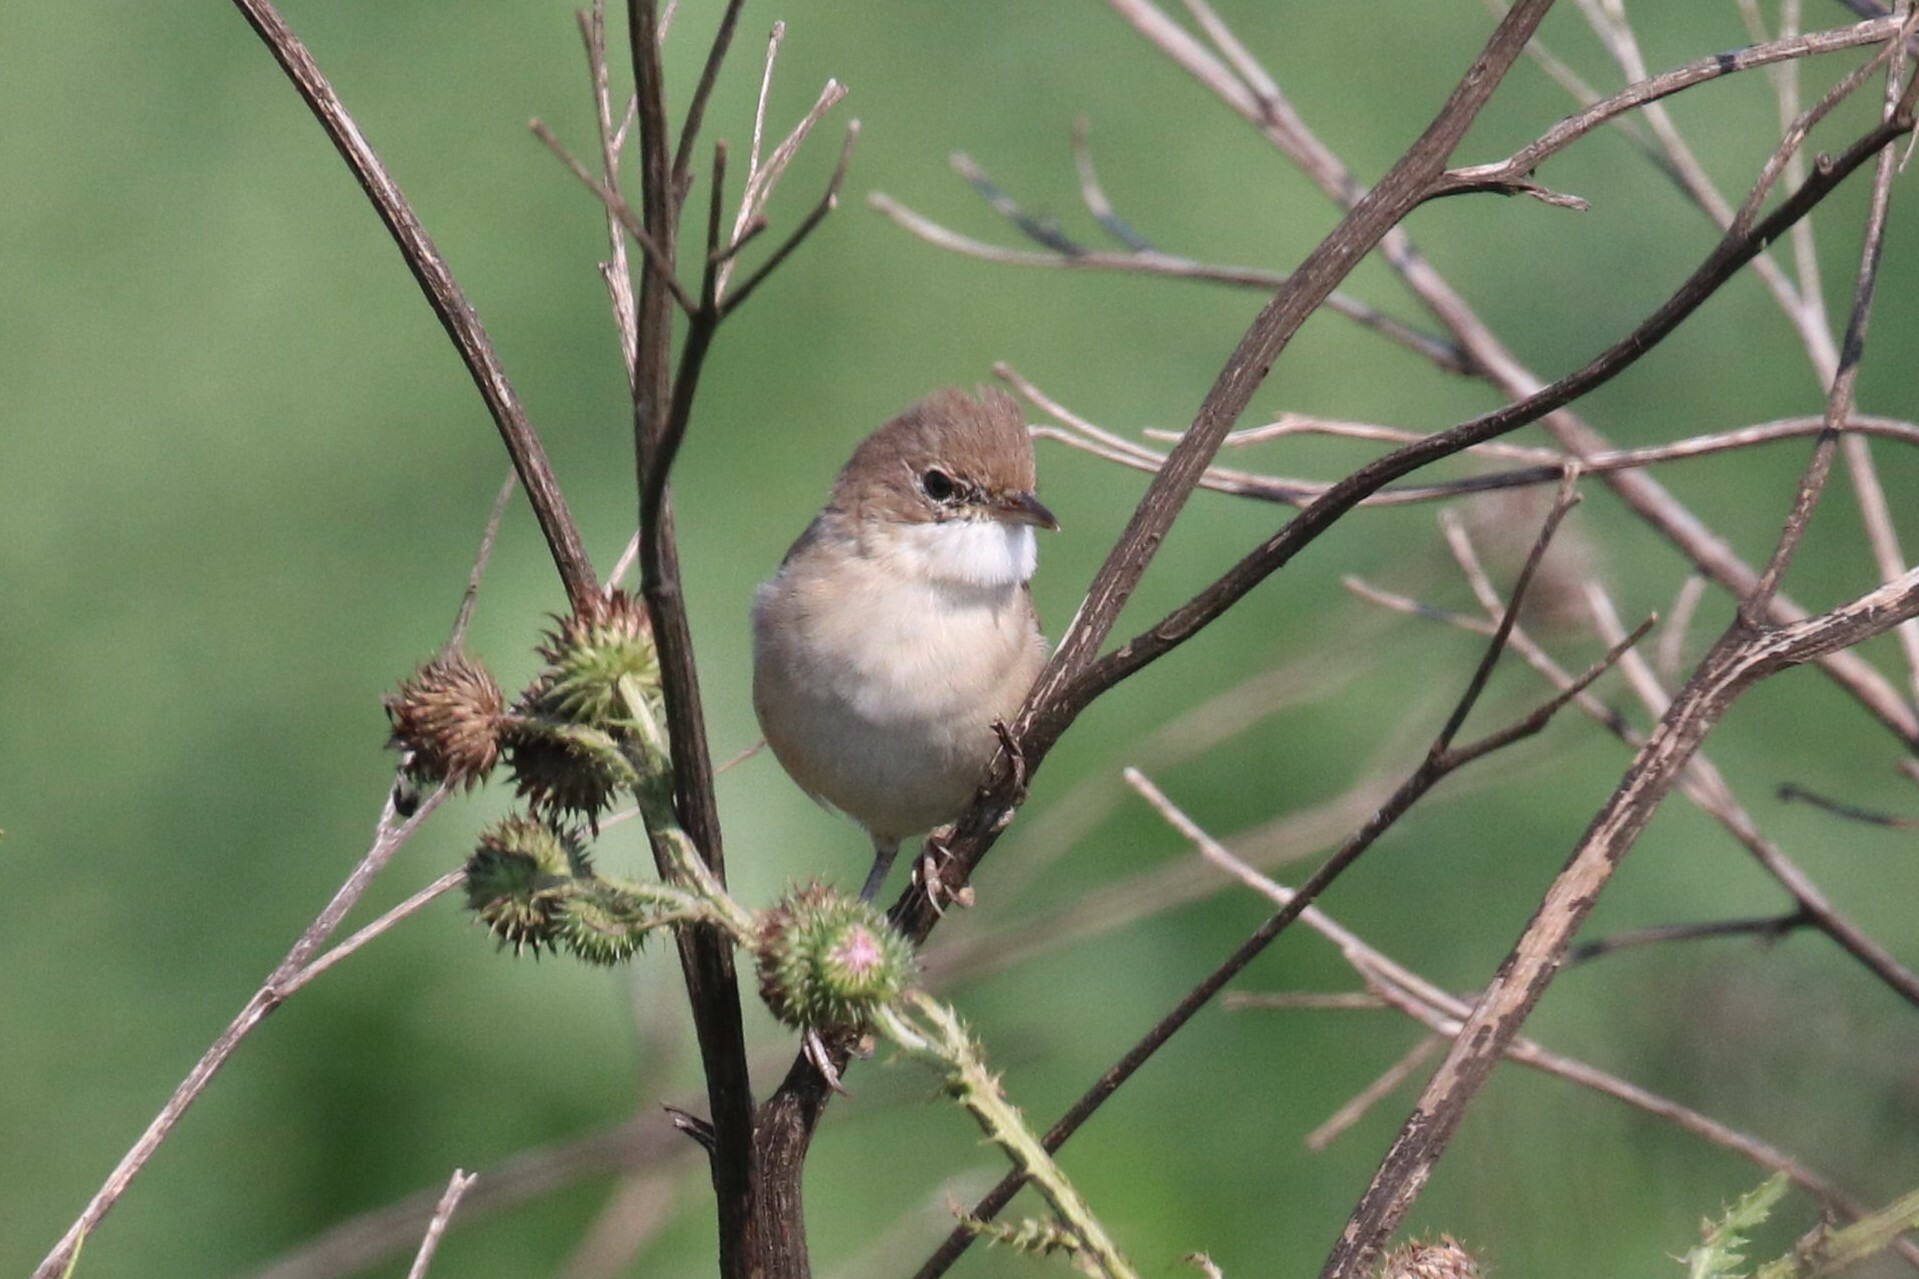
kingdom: Animalia
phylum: Chordata
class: Aves
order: Passeriformes
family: Sylviidae
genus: Sylvia
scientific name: Sylvia communis
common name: Common whitethroat
